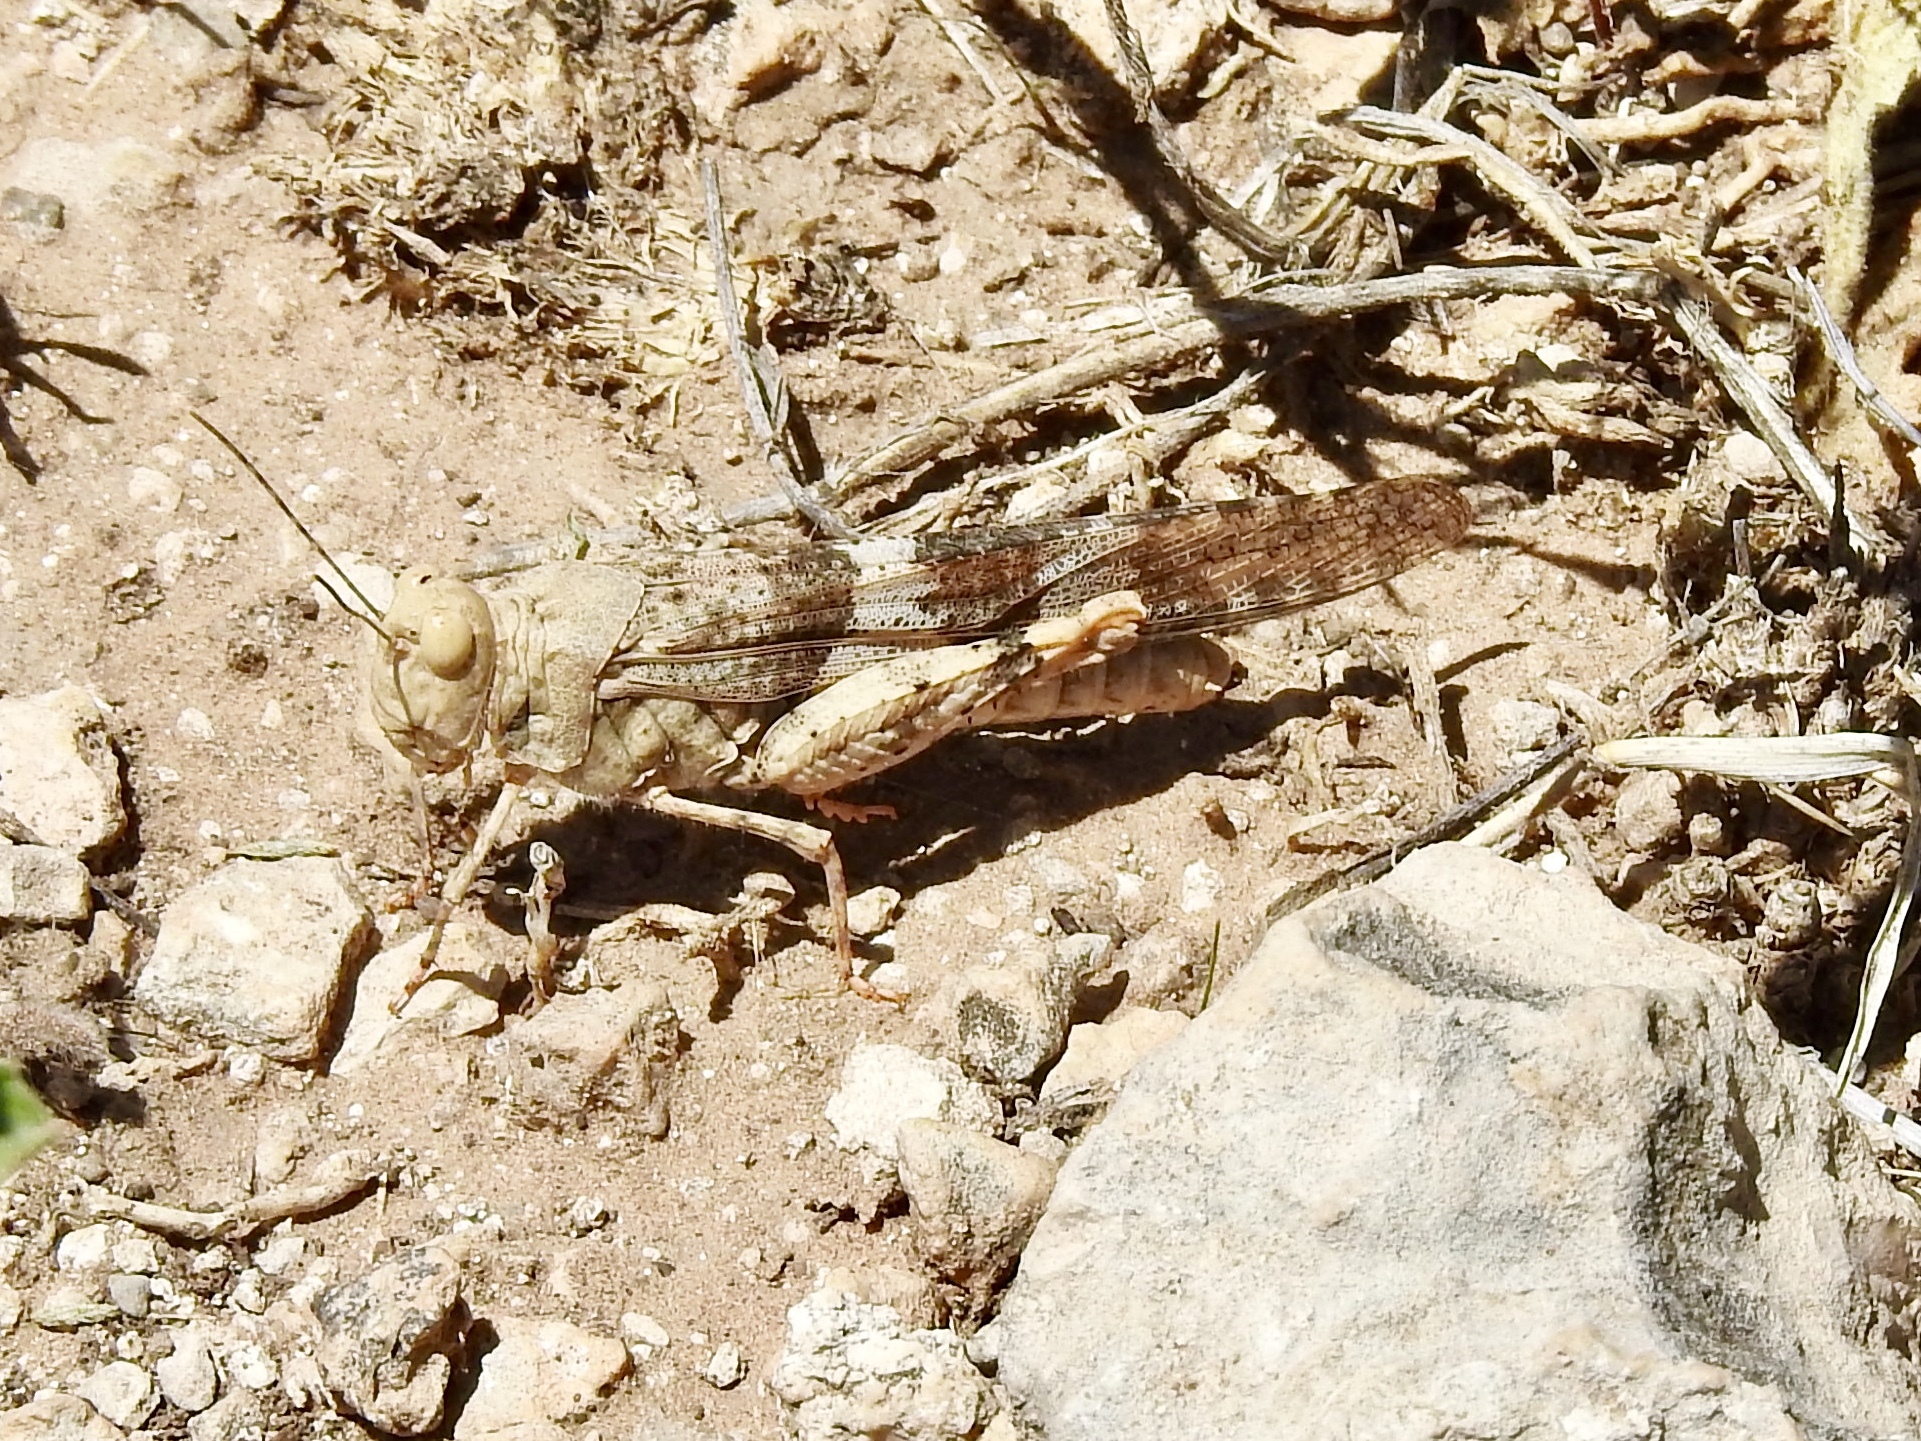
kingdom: Animalia
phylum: Arthropoda
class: Insecta
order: Orthoptera
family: Acrididae
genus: Trimerotropis
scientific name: Trimerotropis pallidipennis
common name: Pallid-winged grasshopper
